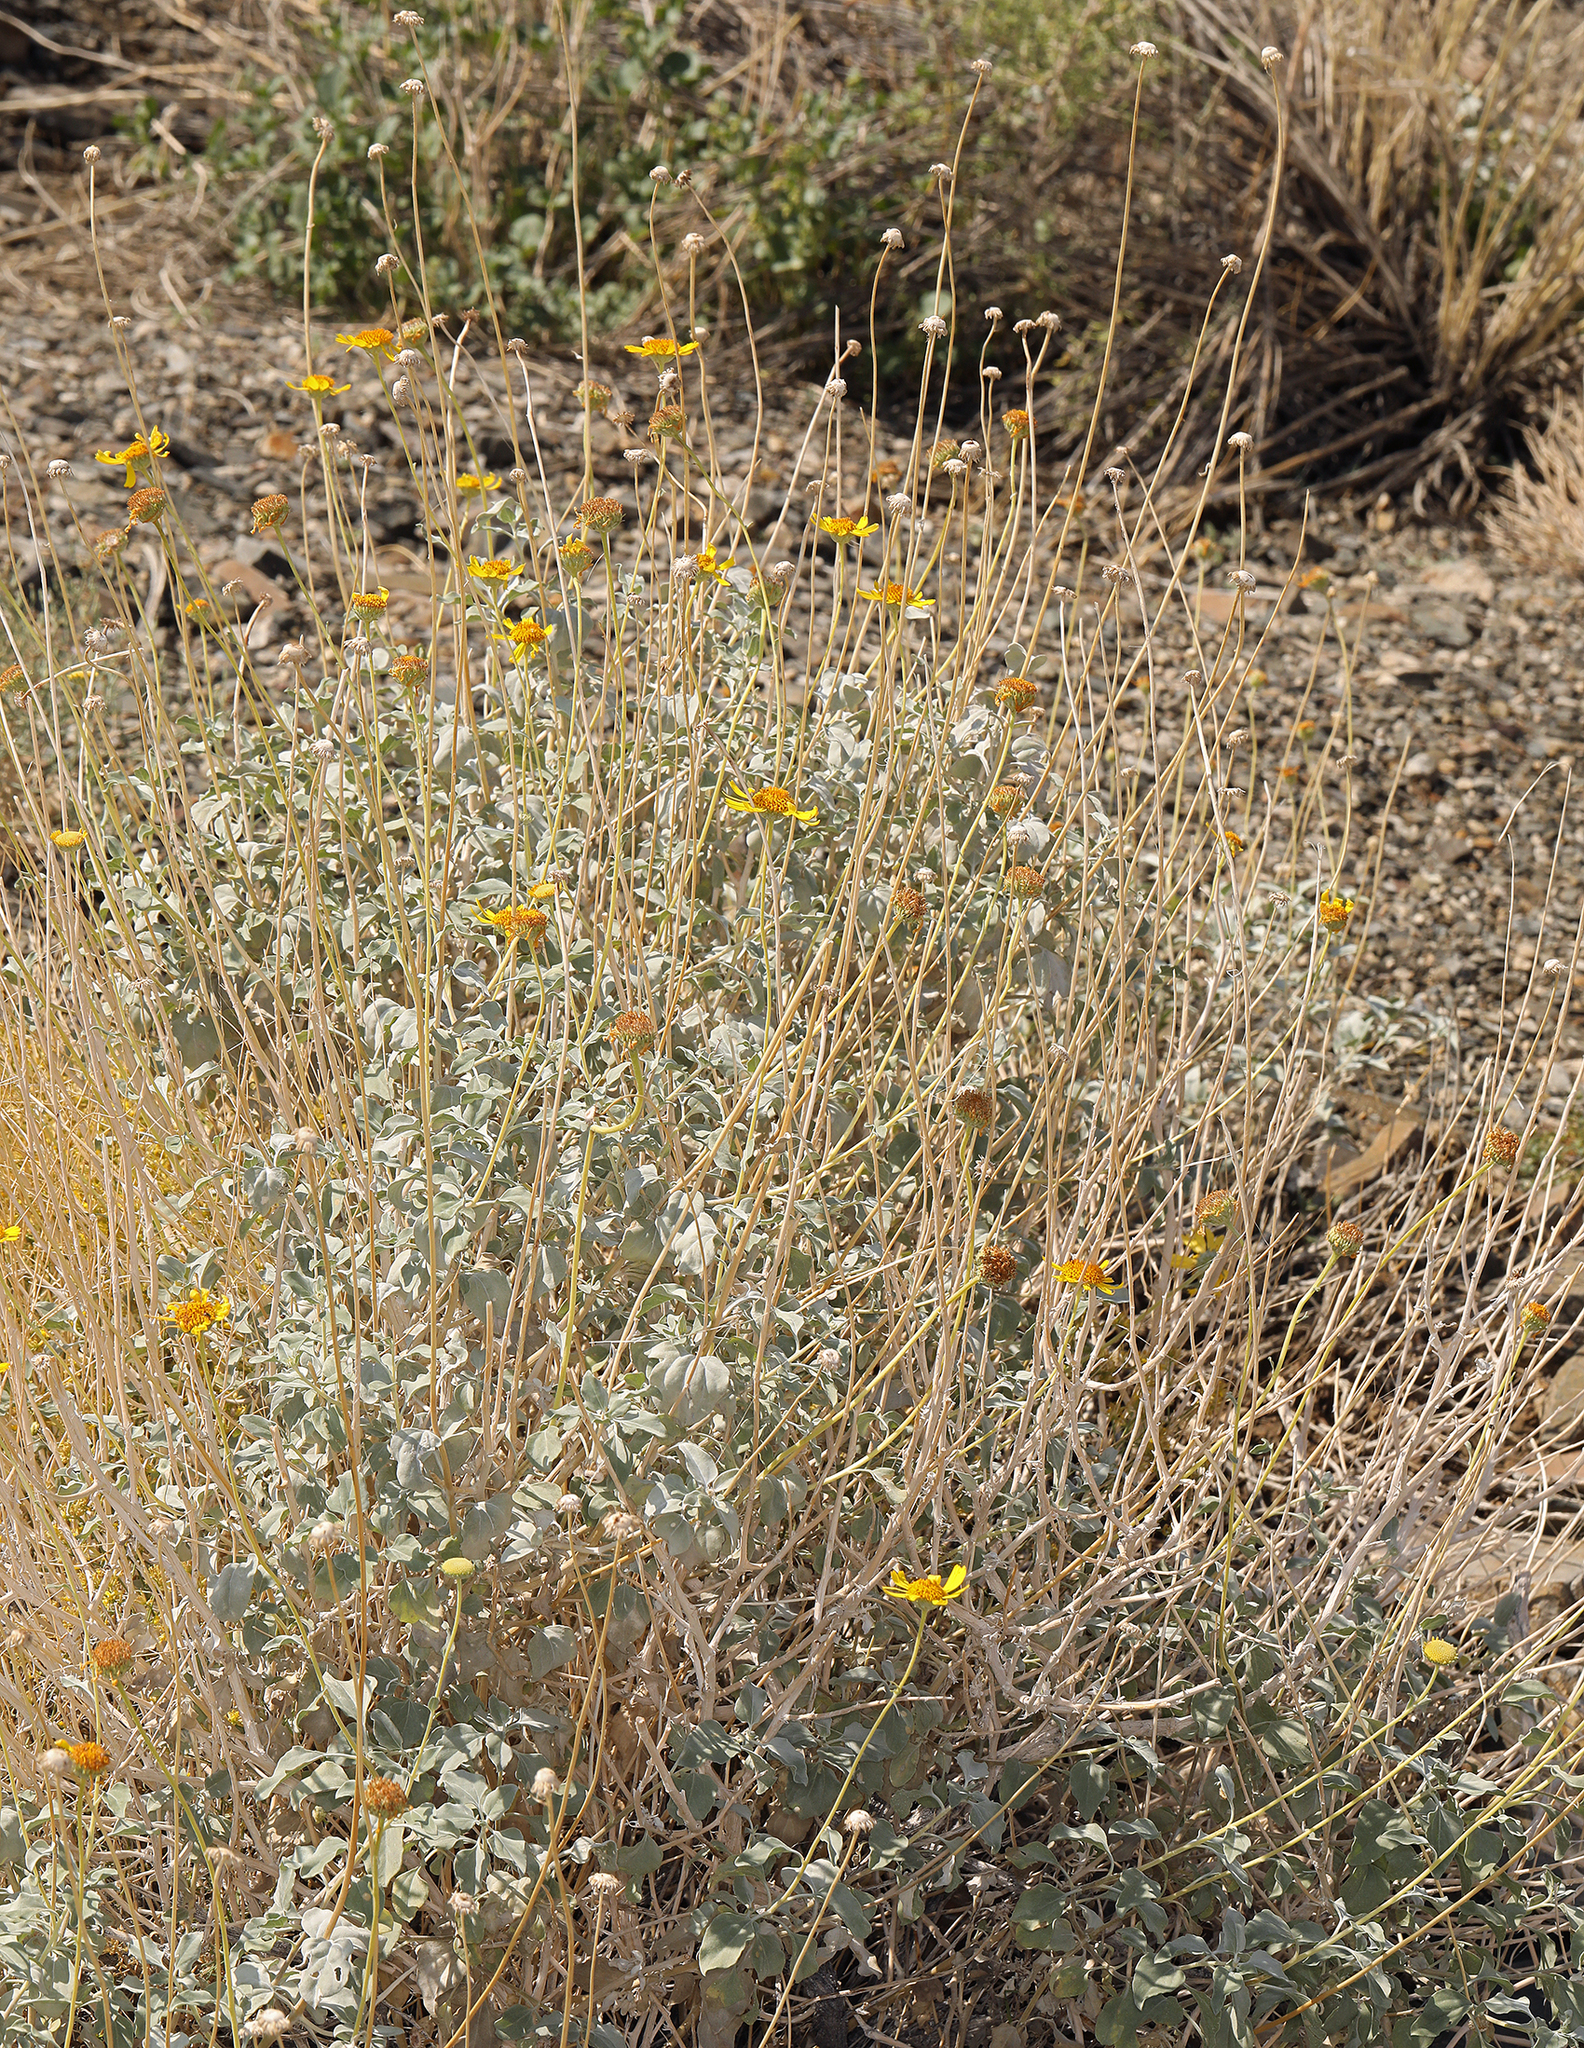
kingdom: Plantae
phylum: Tracheophyta
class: Magnoliopsida
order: Asterales
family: Asteraceae
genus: Encelia
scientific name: Encelia actoni
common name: Acton encelia
